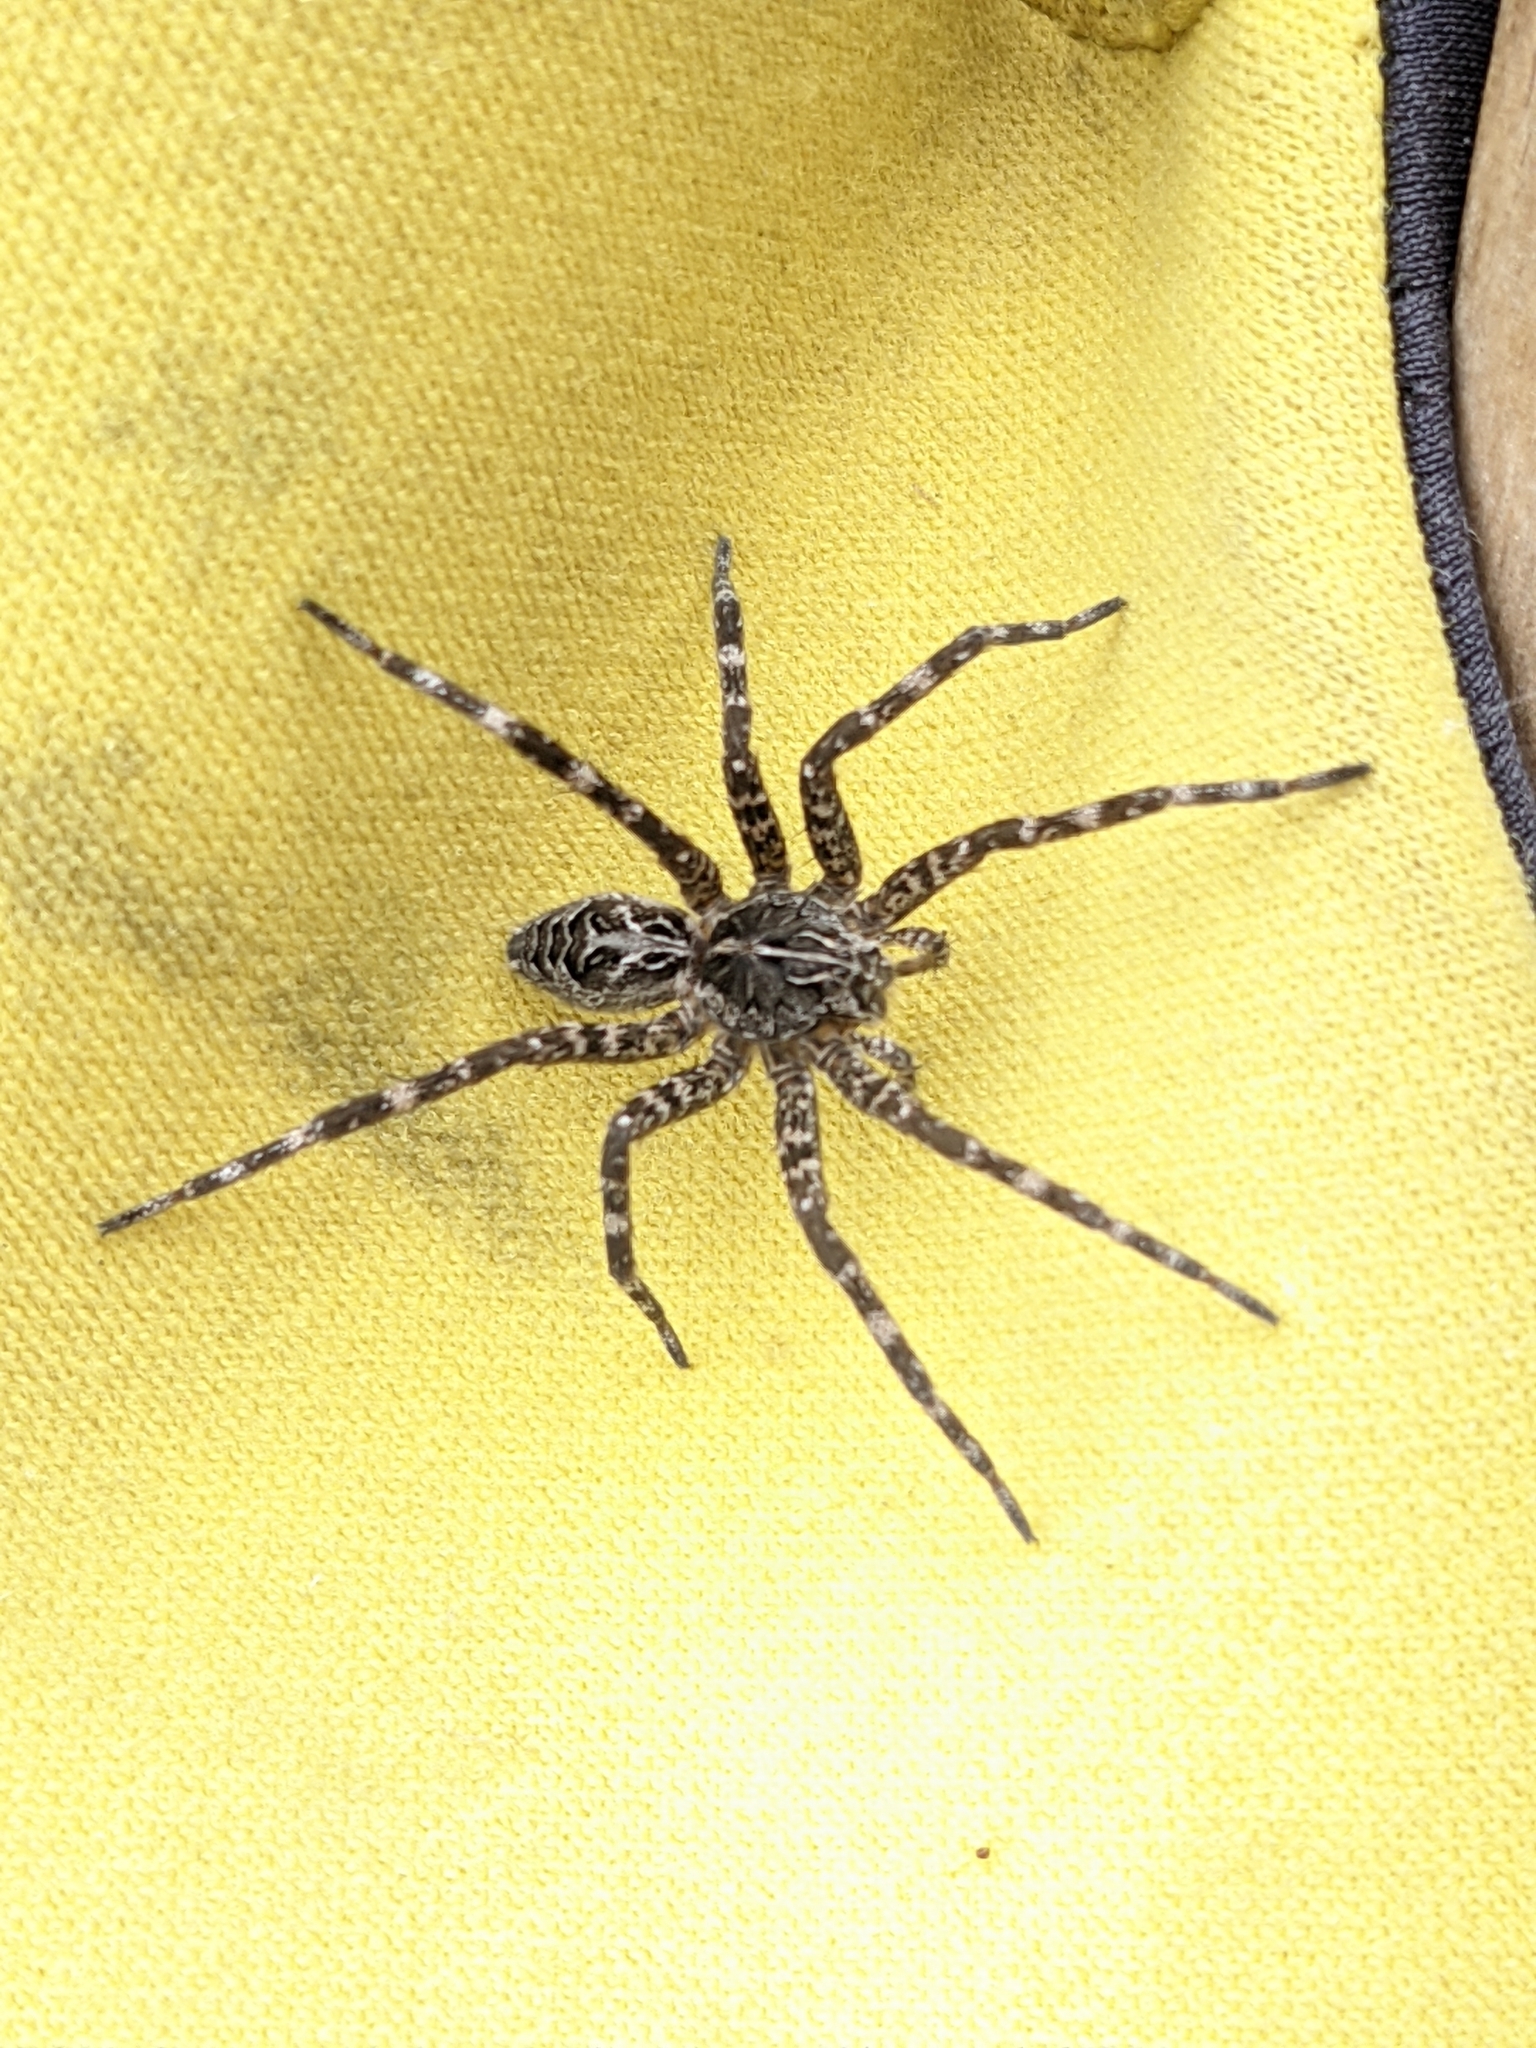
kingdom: Animalia
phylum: Arthropoda
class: Arachnida
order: Araneae
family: Pisauridae
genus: Dolomedes
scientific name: Dolomedes scriptus
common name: Striped fishing spider
